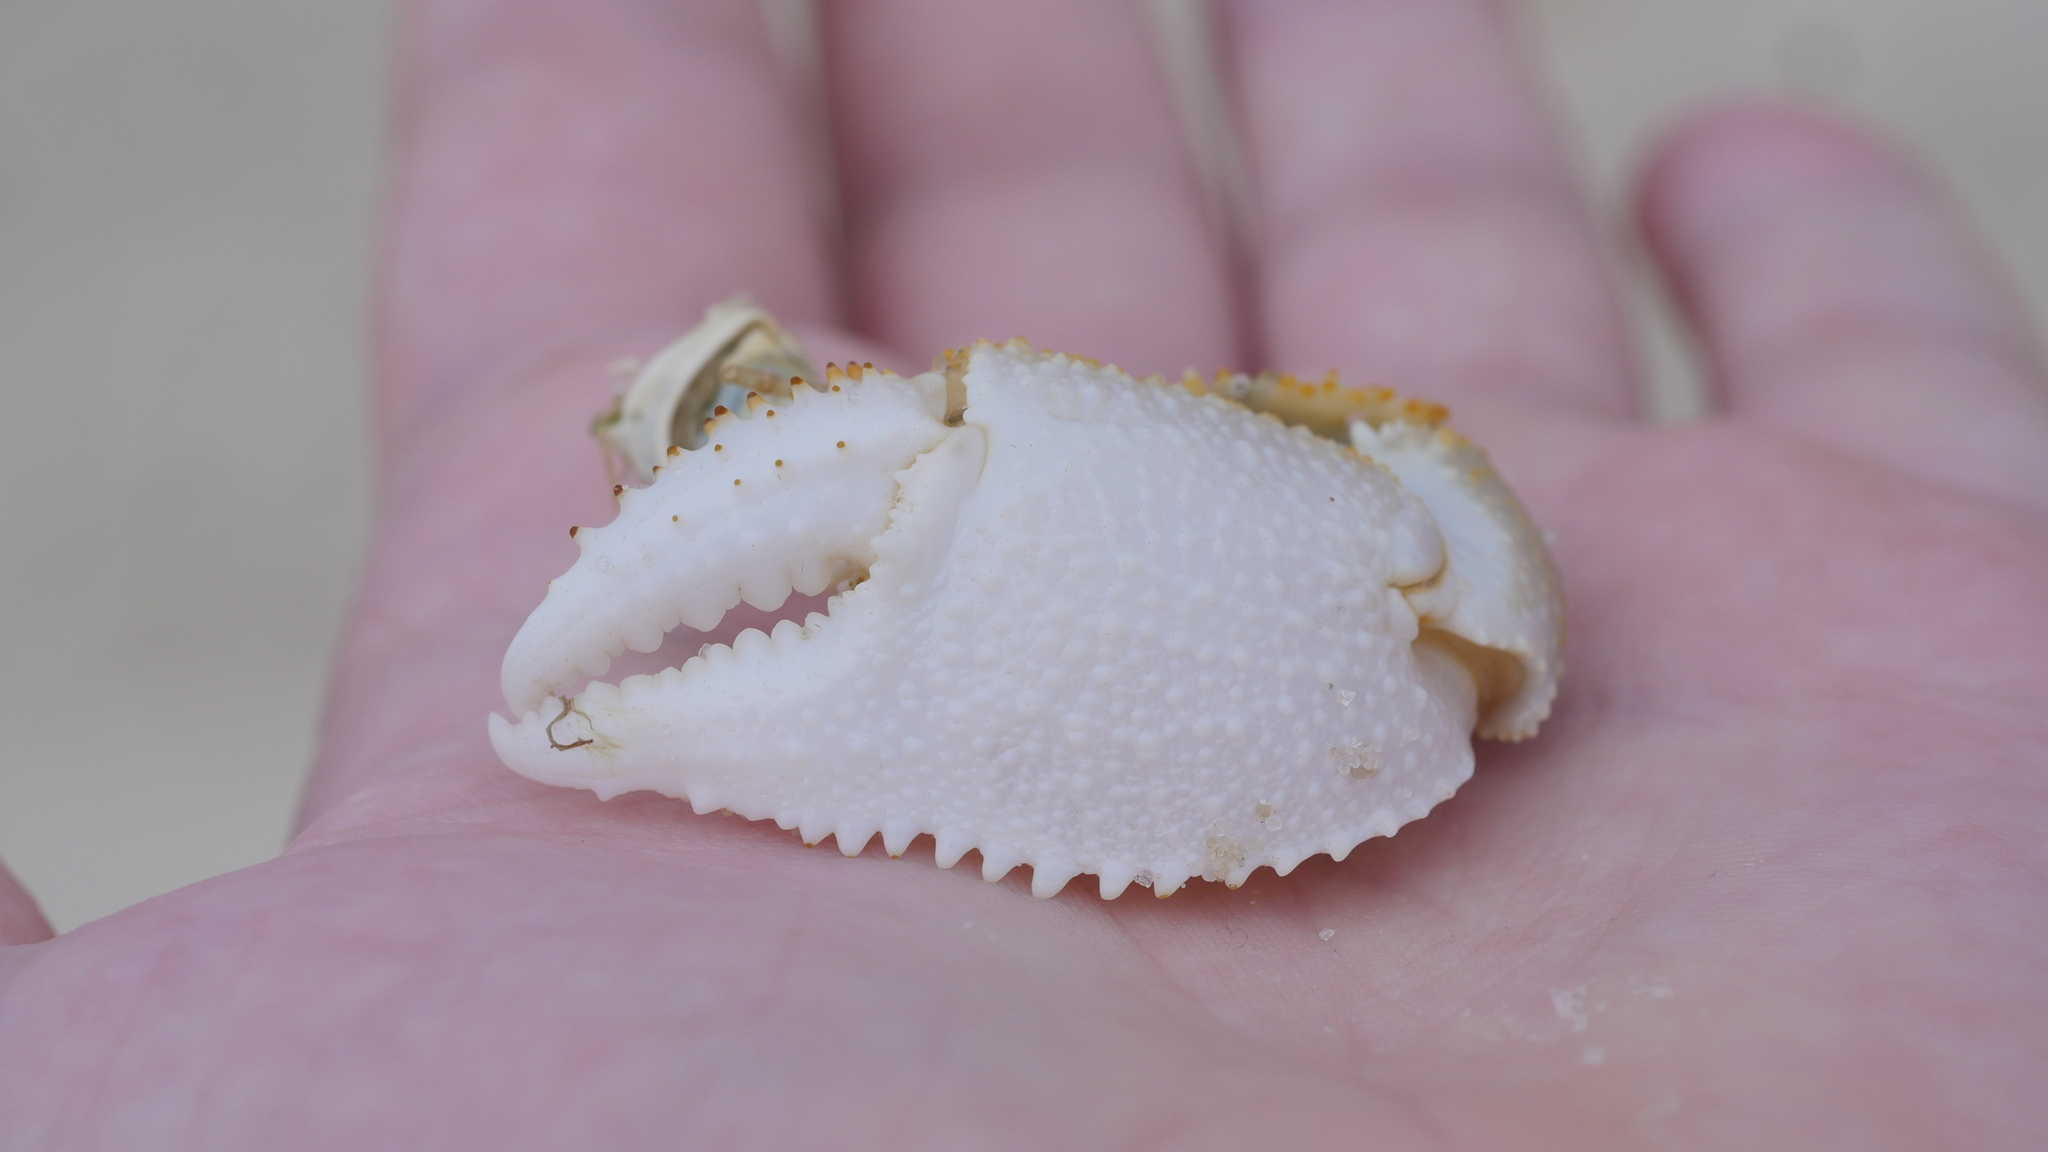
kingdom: Animalia
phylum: Arthropoda
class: Malacostraca
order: Decapoda
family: Ocypodidae
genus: Ocypode
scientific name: Ocypode quadrata
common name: Ghost crab
